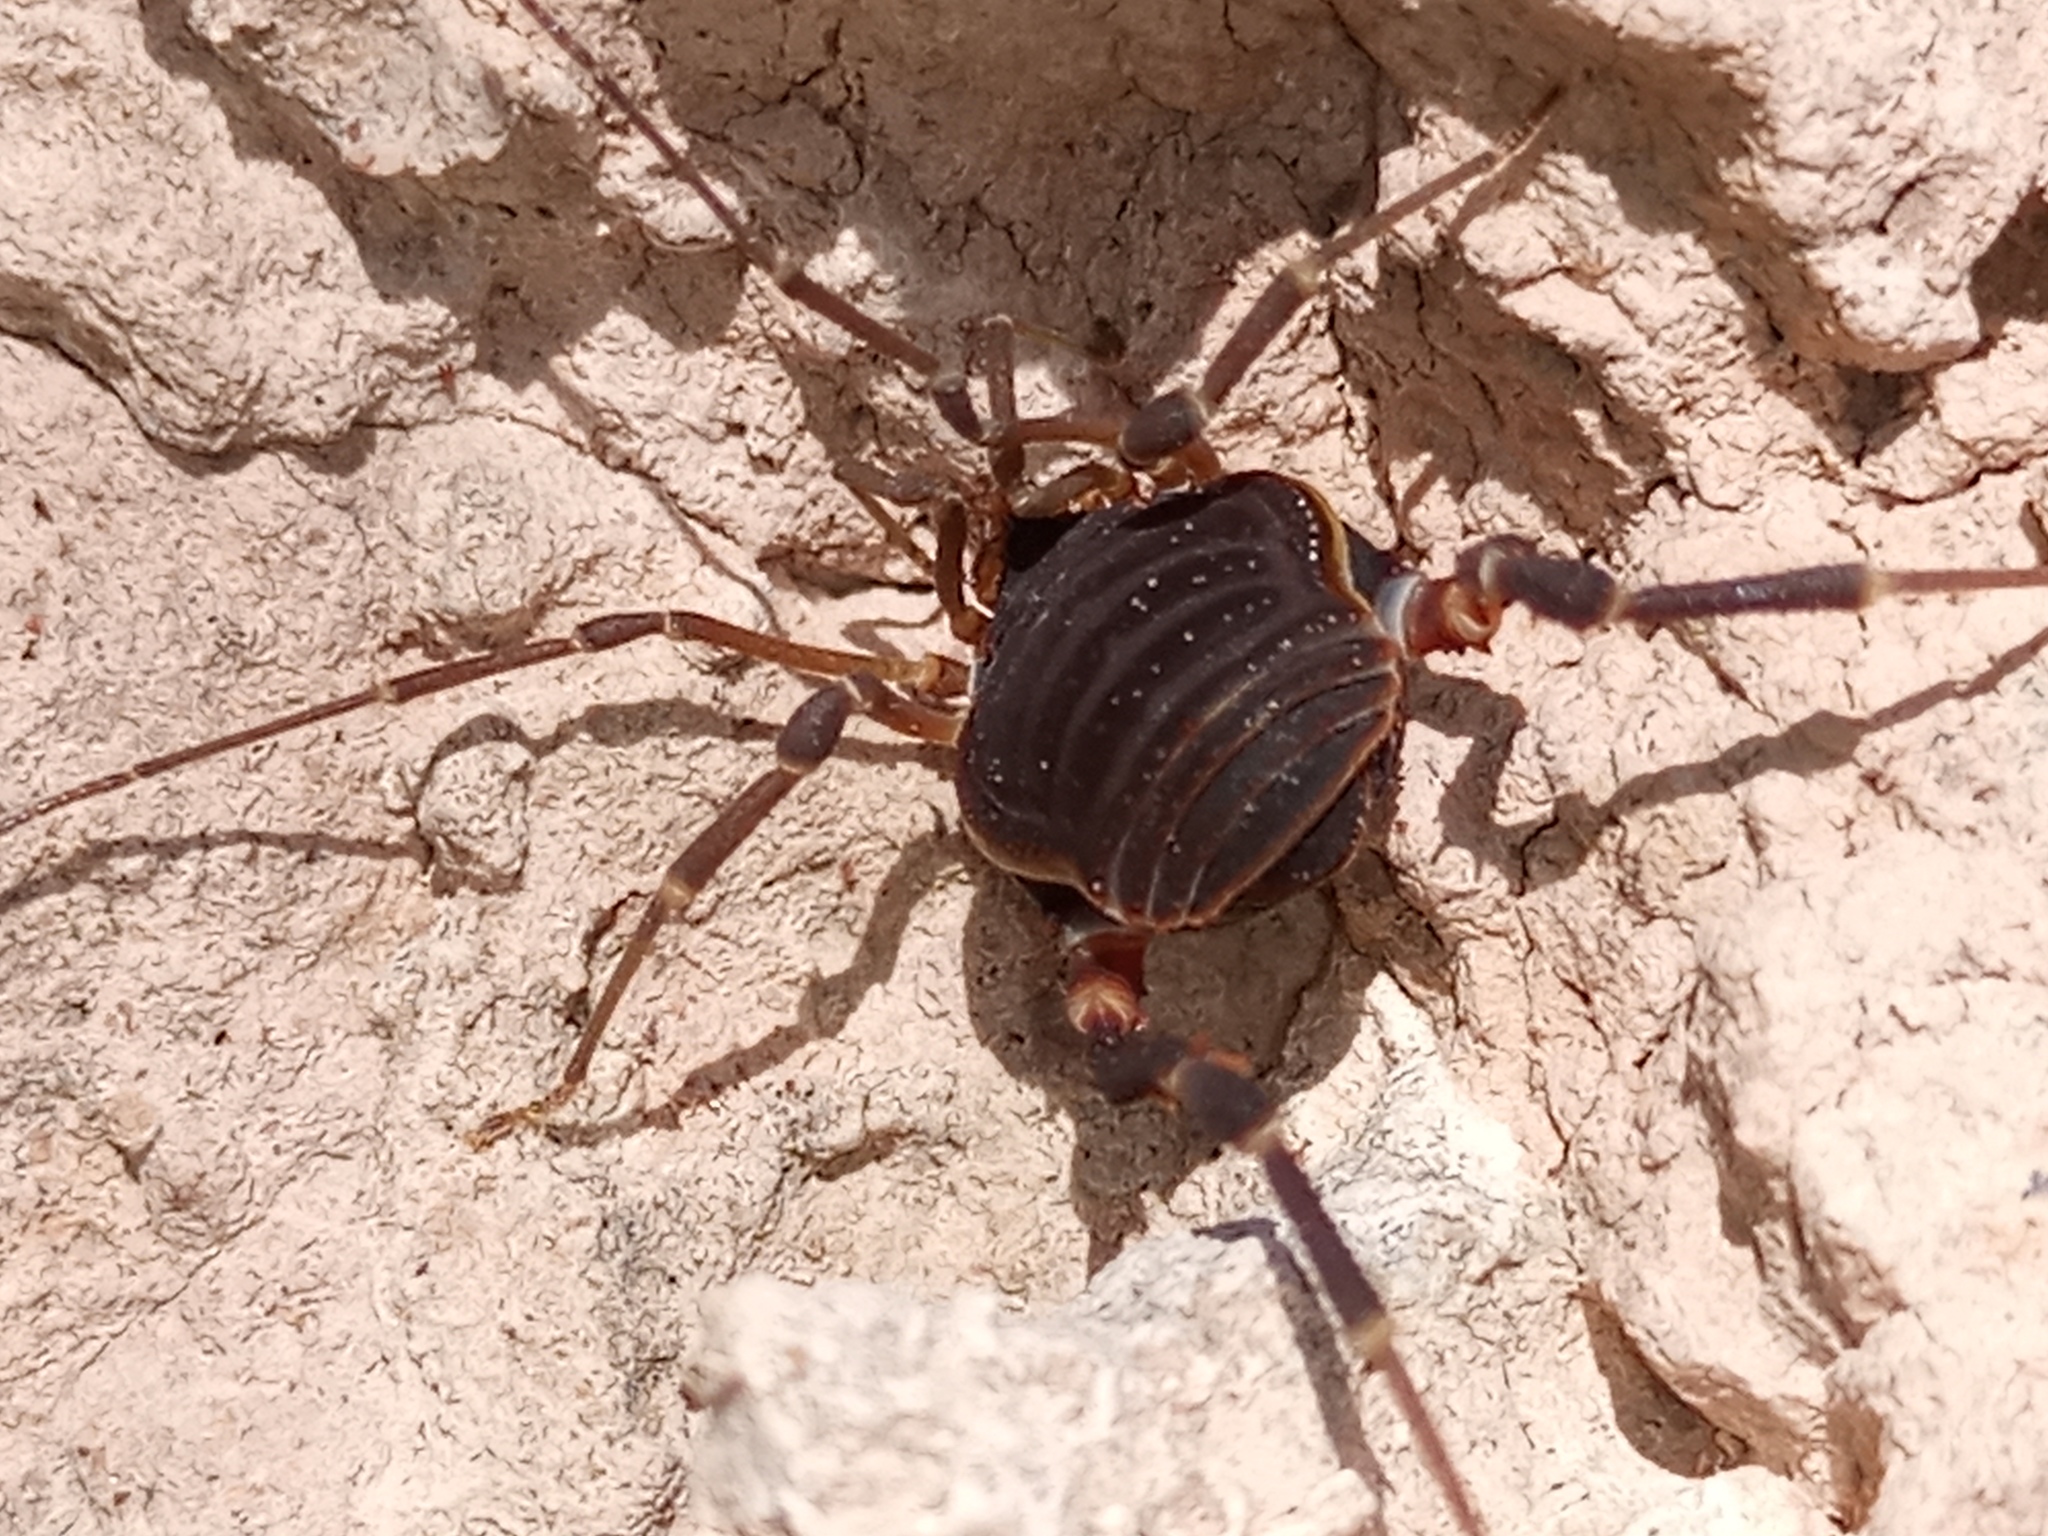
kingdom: Animalia
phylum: Arthropoda
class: Arachnida
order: Opiliones
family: Gonyleptidae
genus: Acanthopachylus
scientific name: Acanthopachylus robustus
